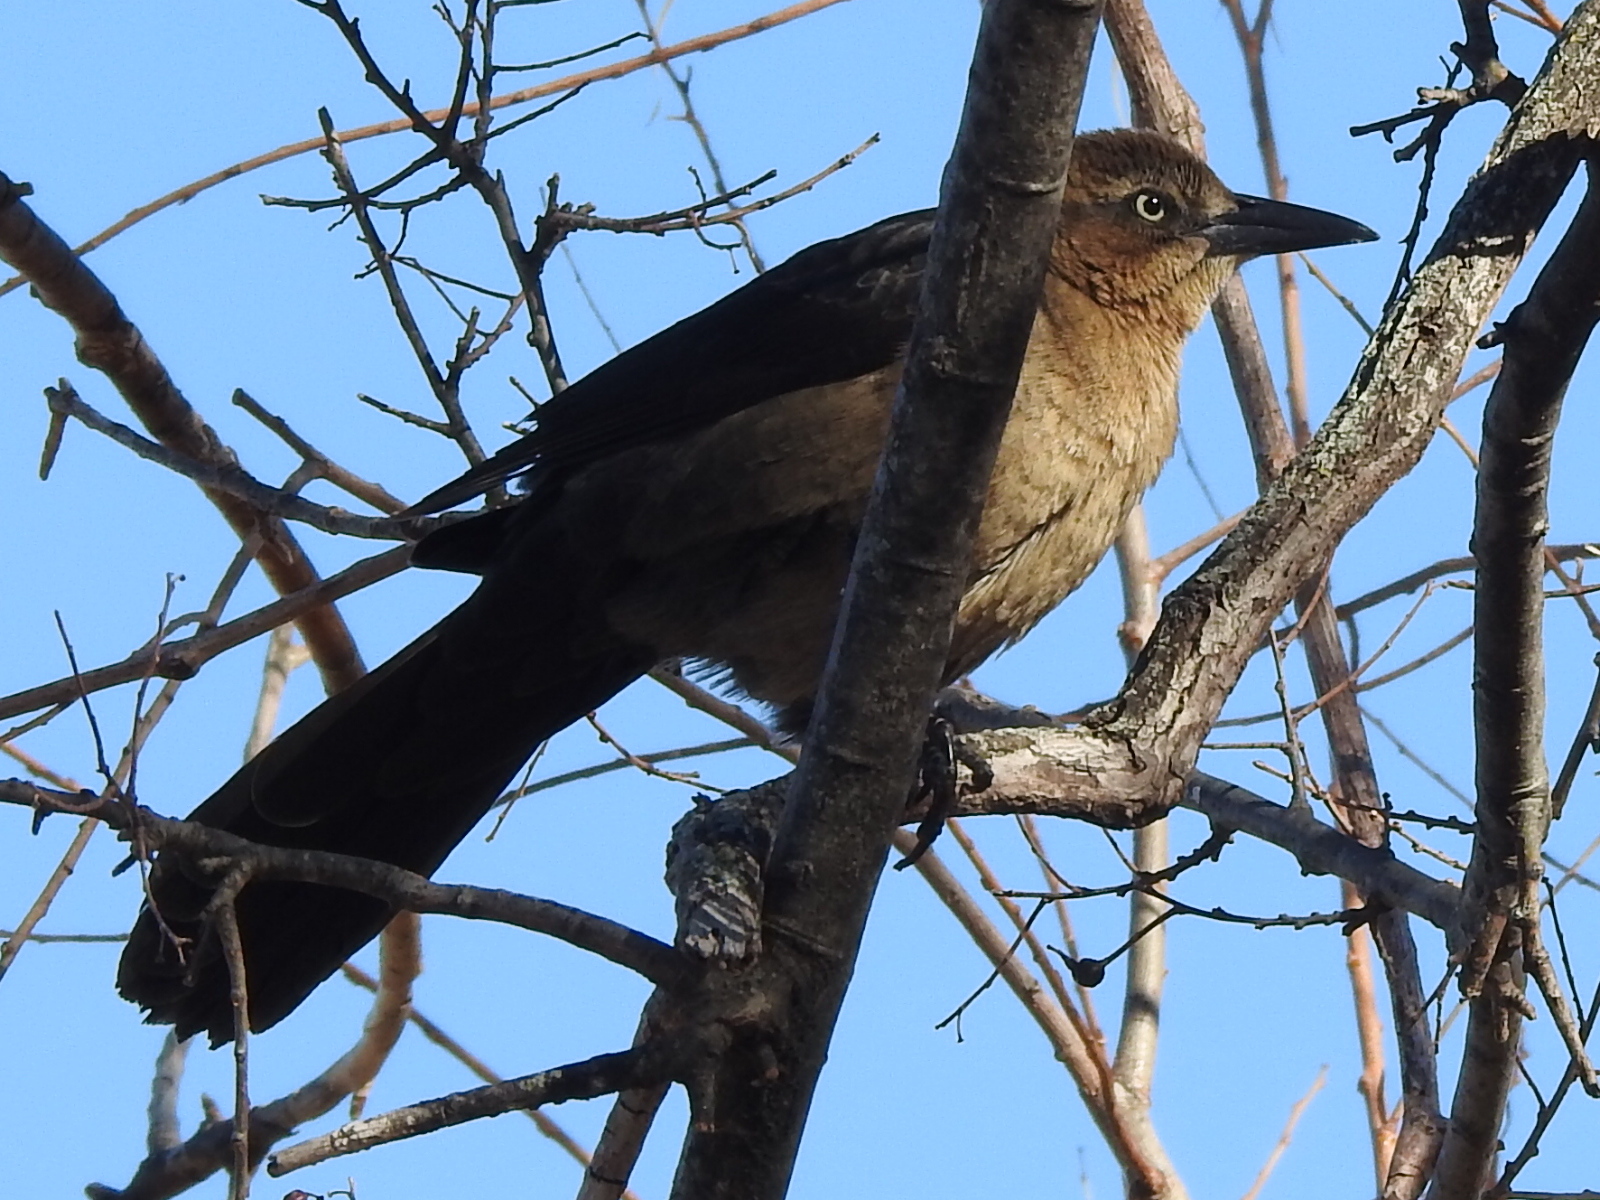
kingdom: Animalia
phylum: Chordata
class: Aves
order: Passeriformes
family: Icteridae
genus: Quiscalus
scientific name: Quiscalus mexicanus
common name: Great-tailed grackle
